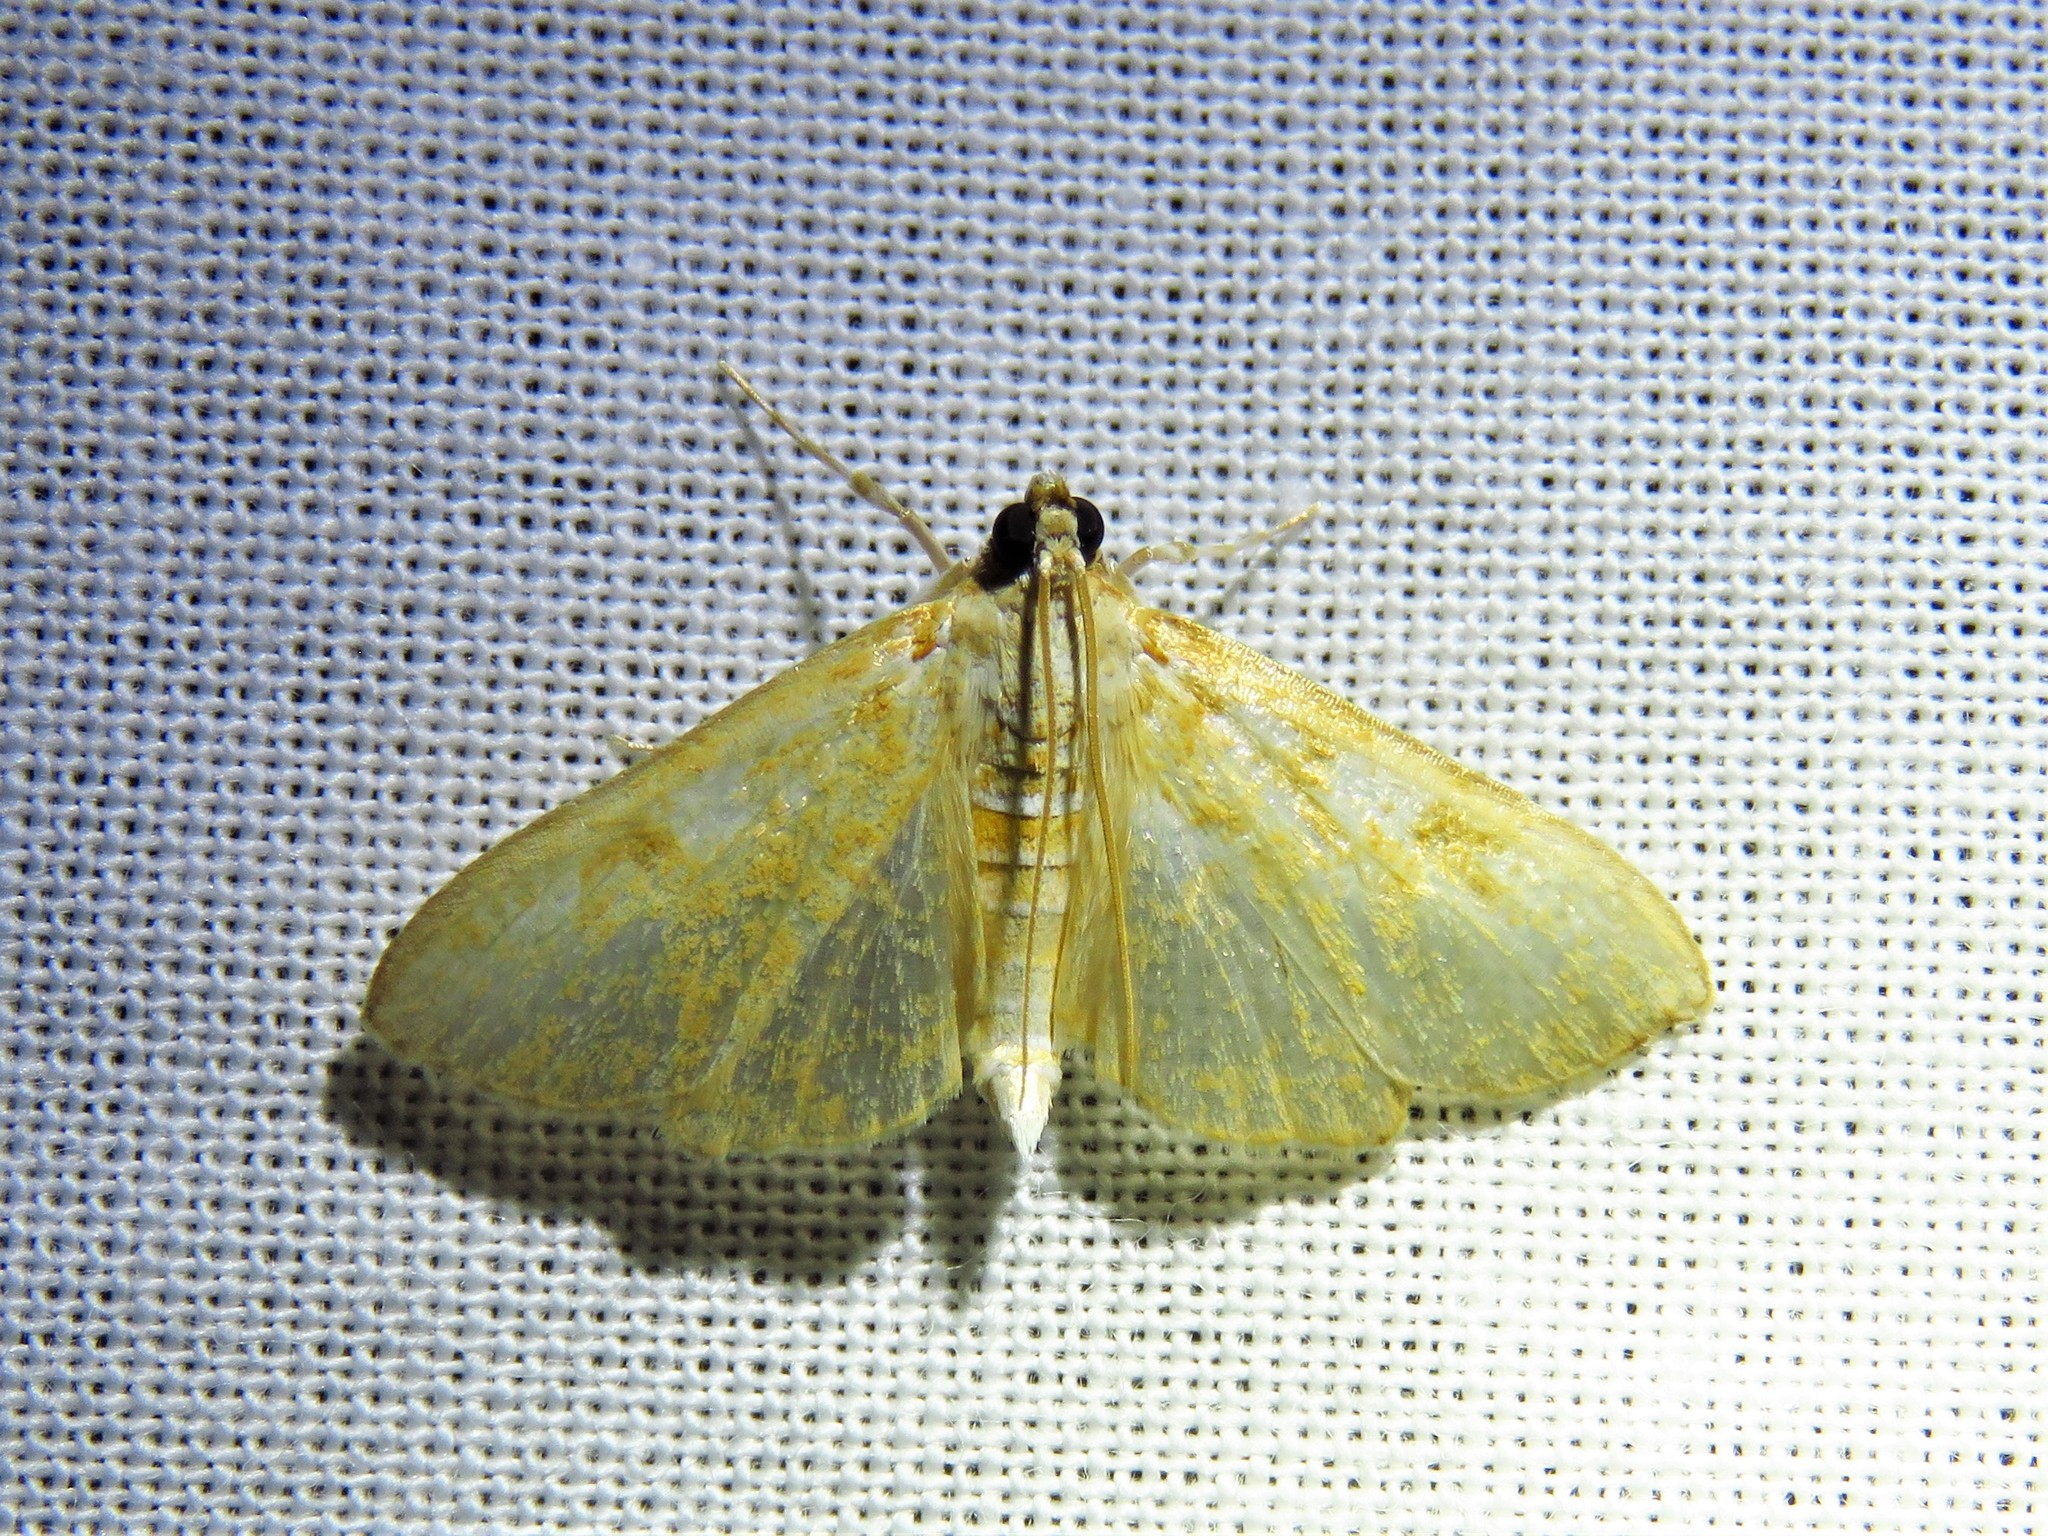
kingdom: Animalia
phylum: Arthropoda
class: Insecta
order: Lepidoptera
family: Crambidae
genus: Palpita
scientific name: Palpita freemanalis
